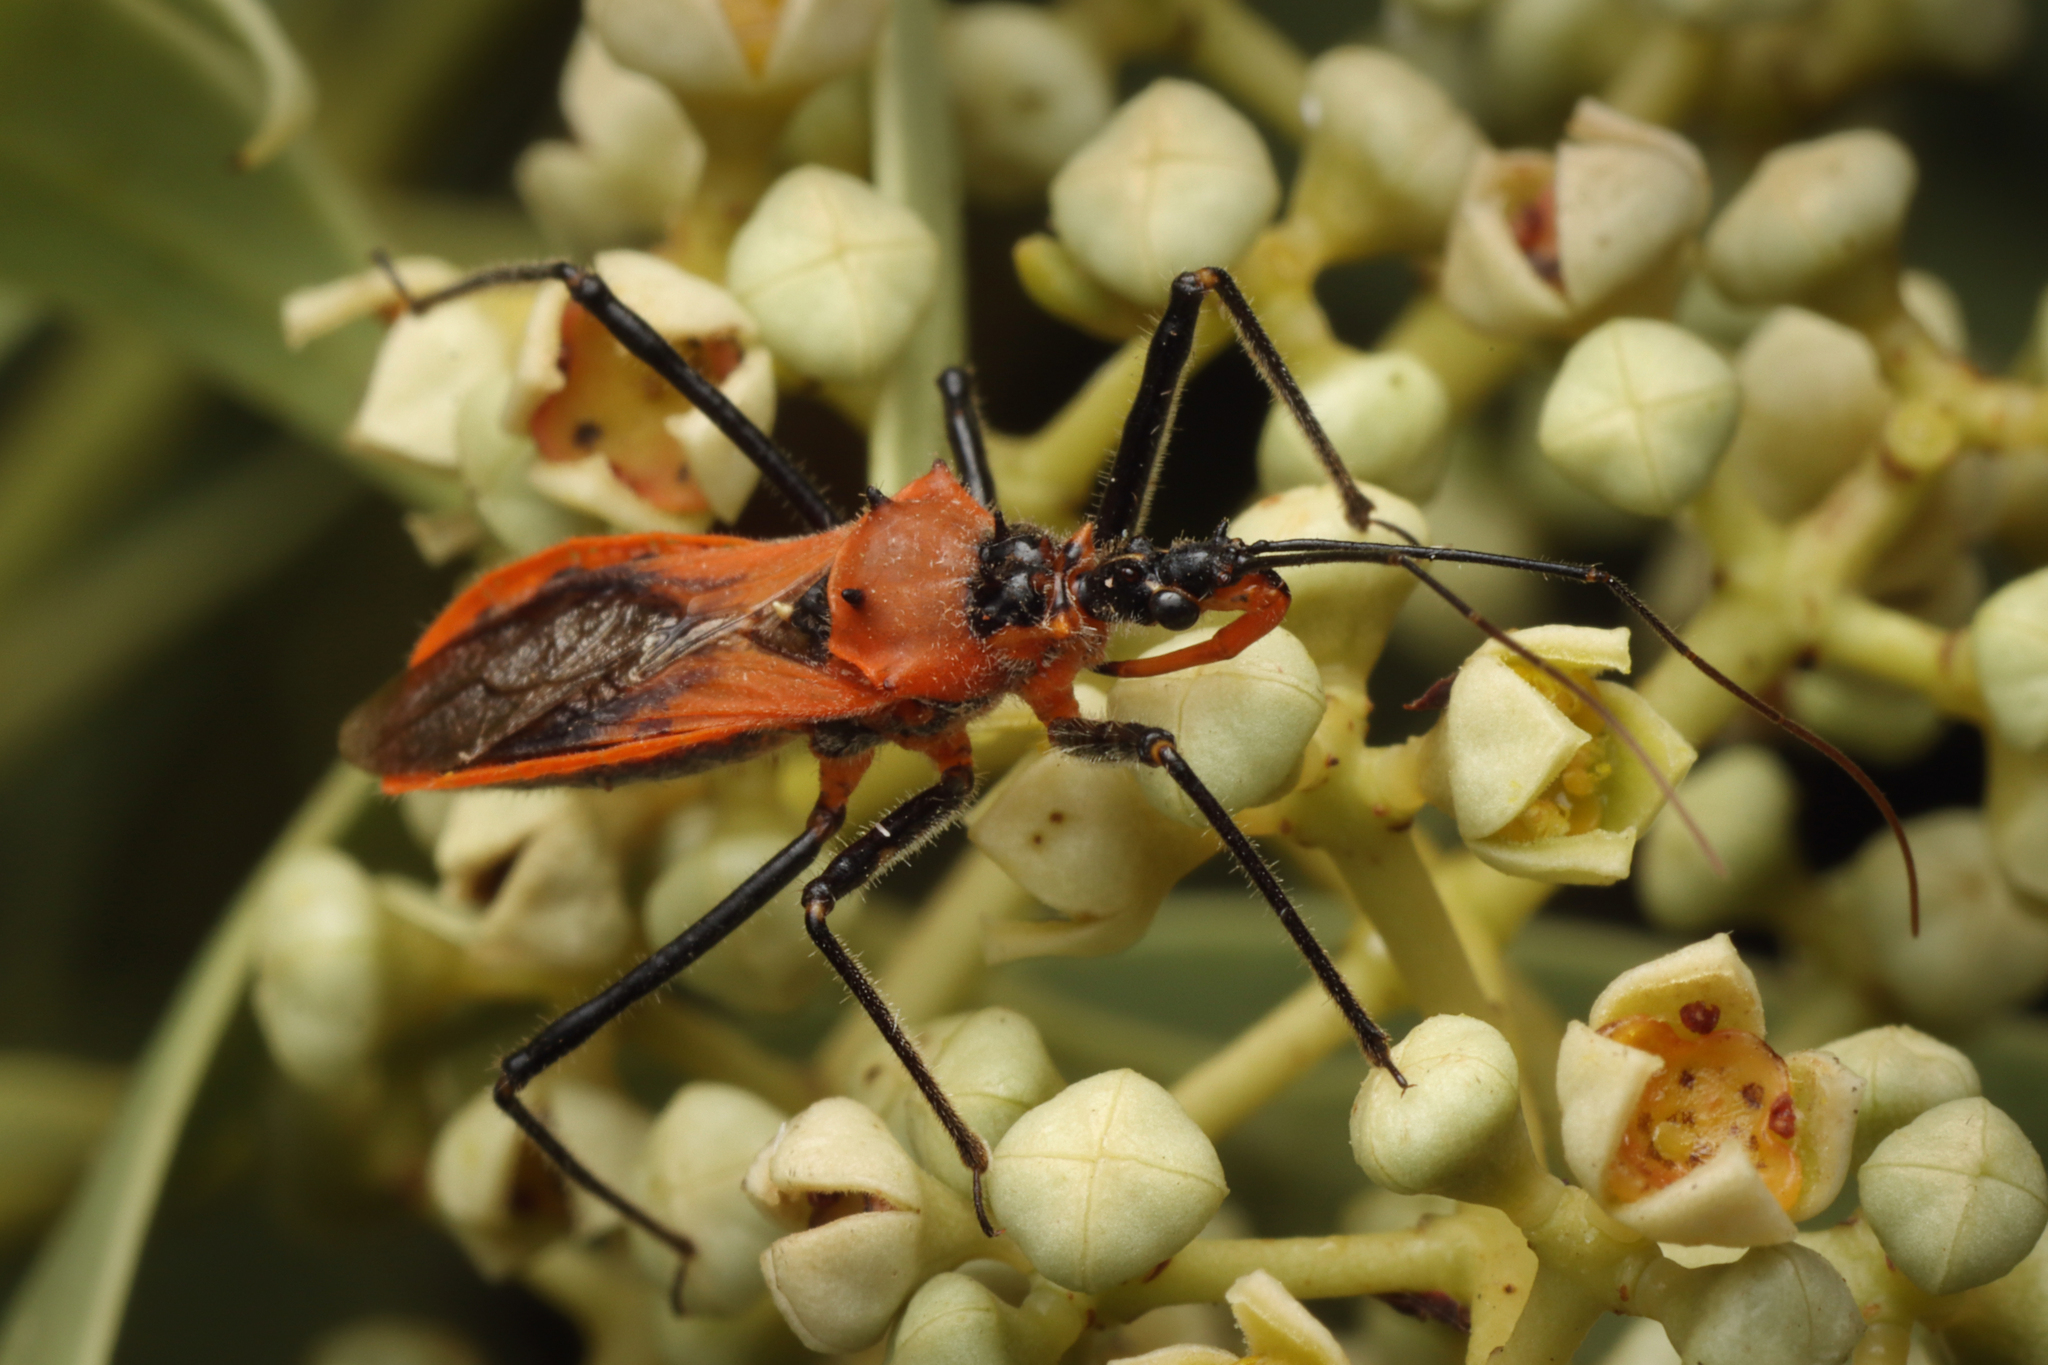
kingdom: Animalia
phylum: Arthropoda
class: Insecta
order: Hemiptera
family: Reduviidae
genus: Gminatus
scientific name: Gminatus australis
